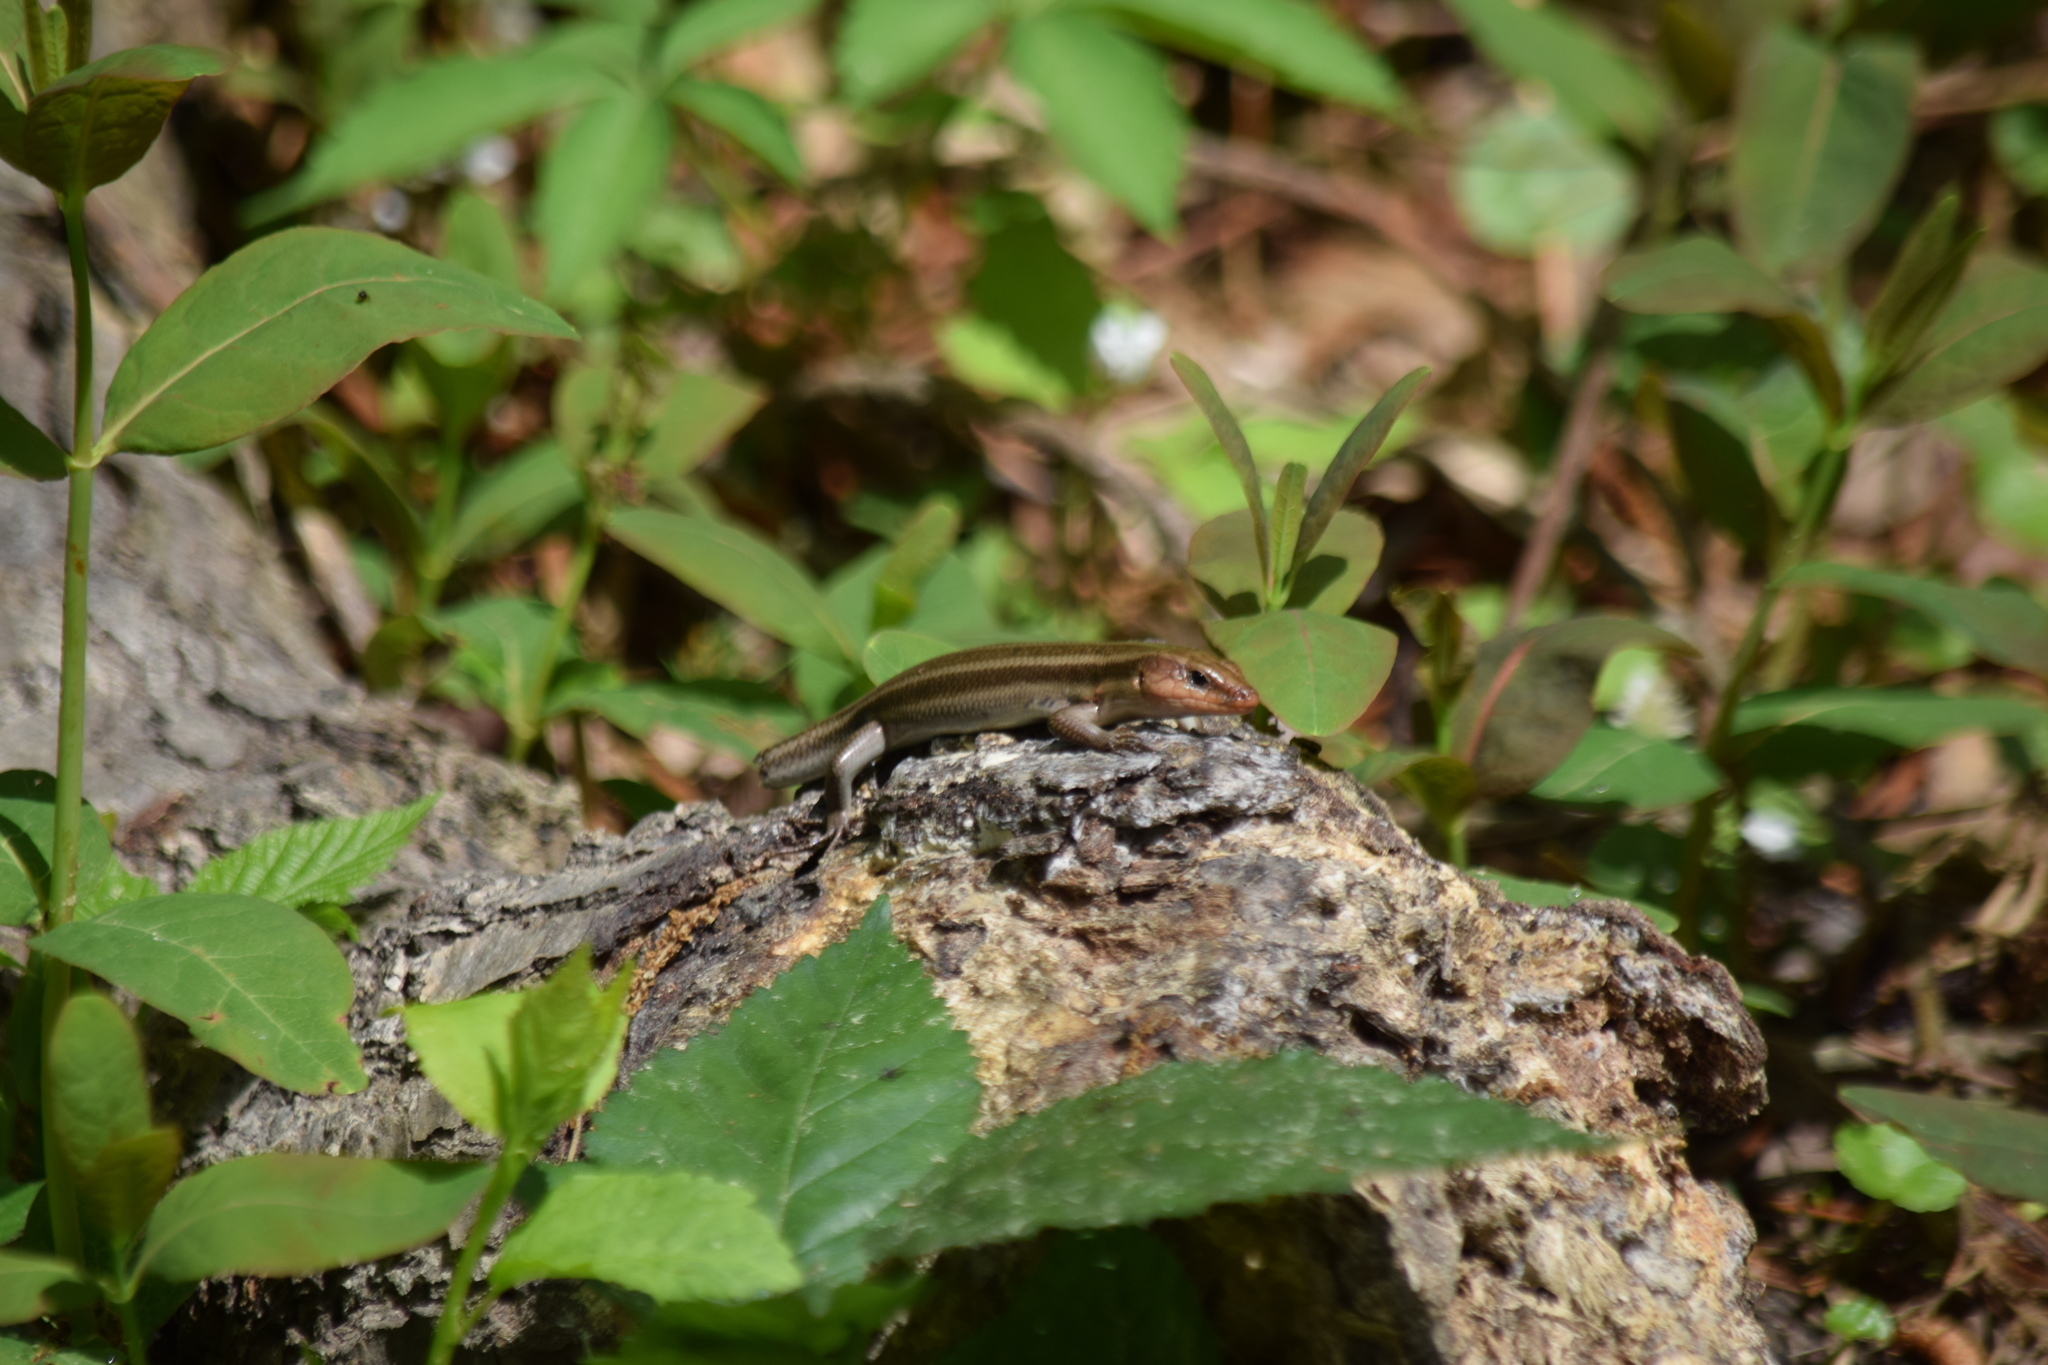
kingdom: Animalia
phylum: Chordata
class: Squamata
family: Scincidae
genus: Plestiodon
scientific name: Plestiodon fasciatus
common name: Five-lined skink
